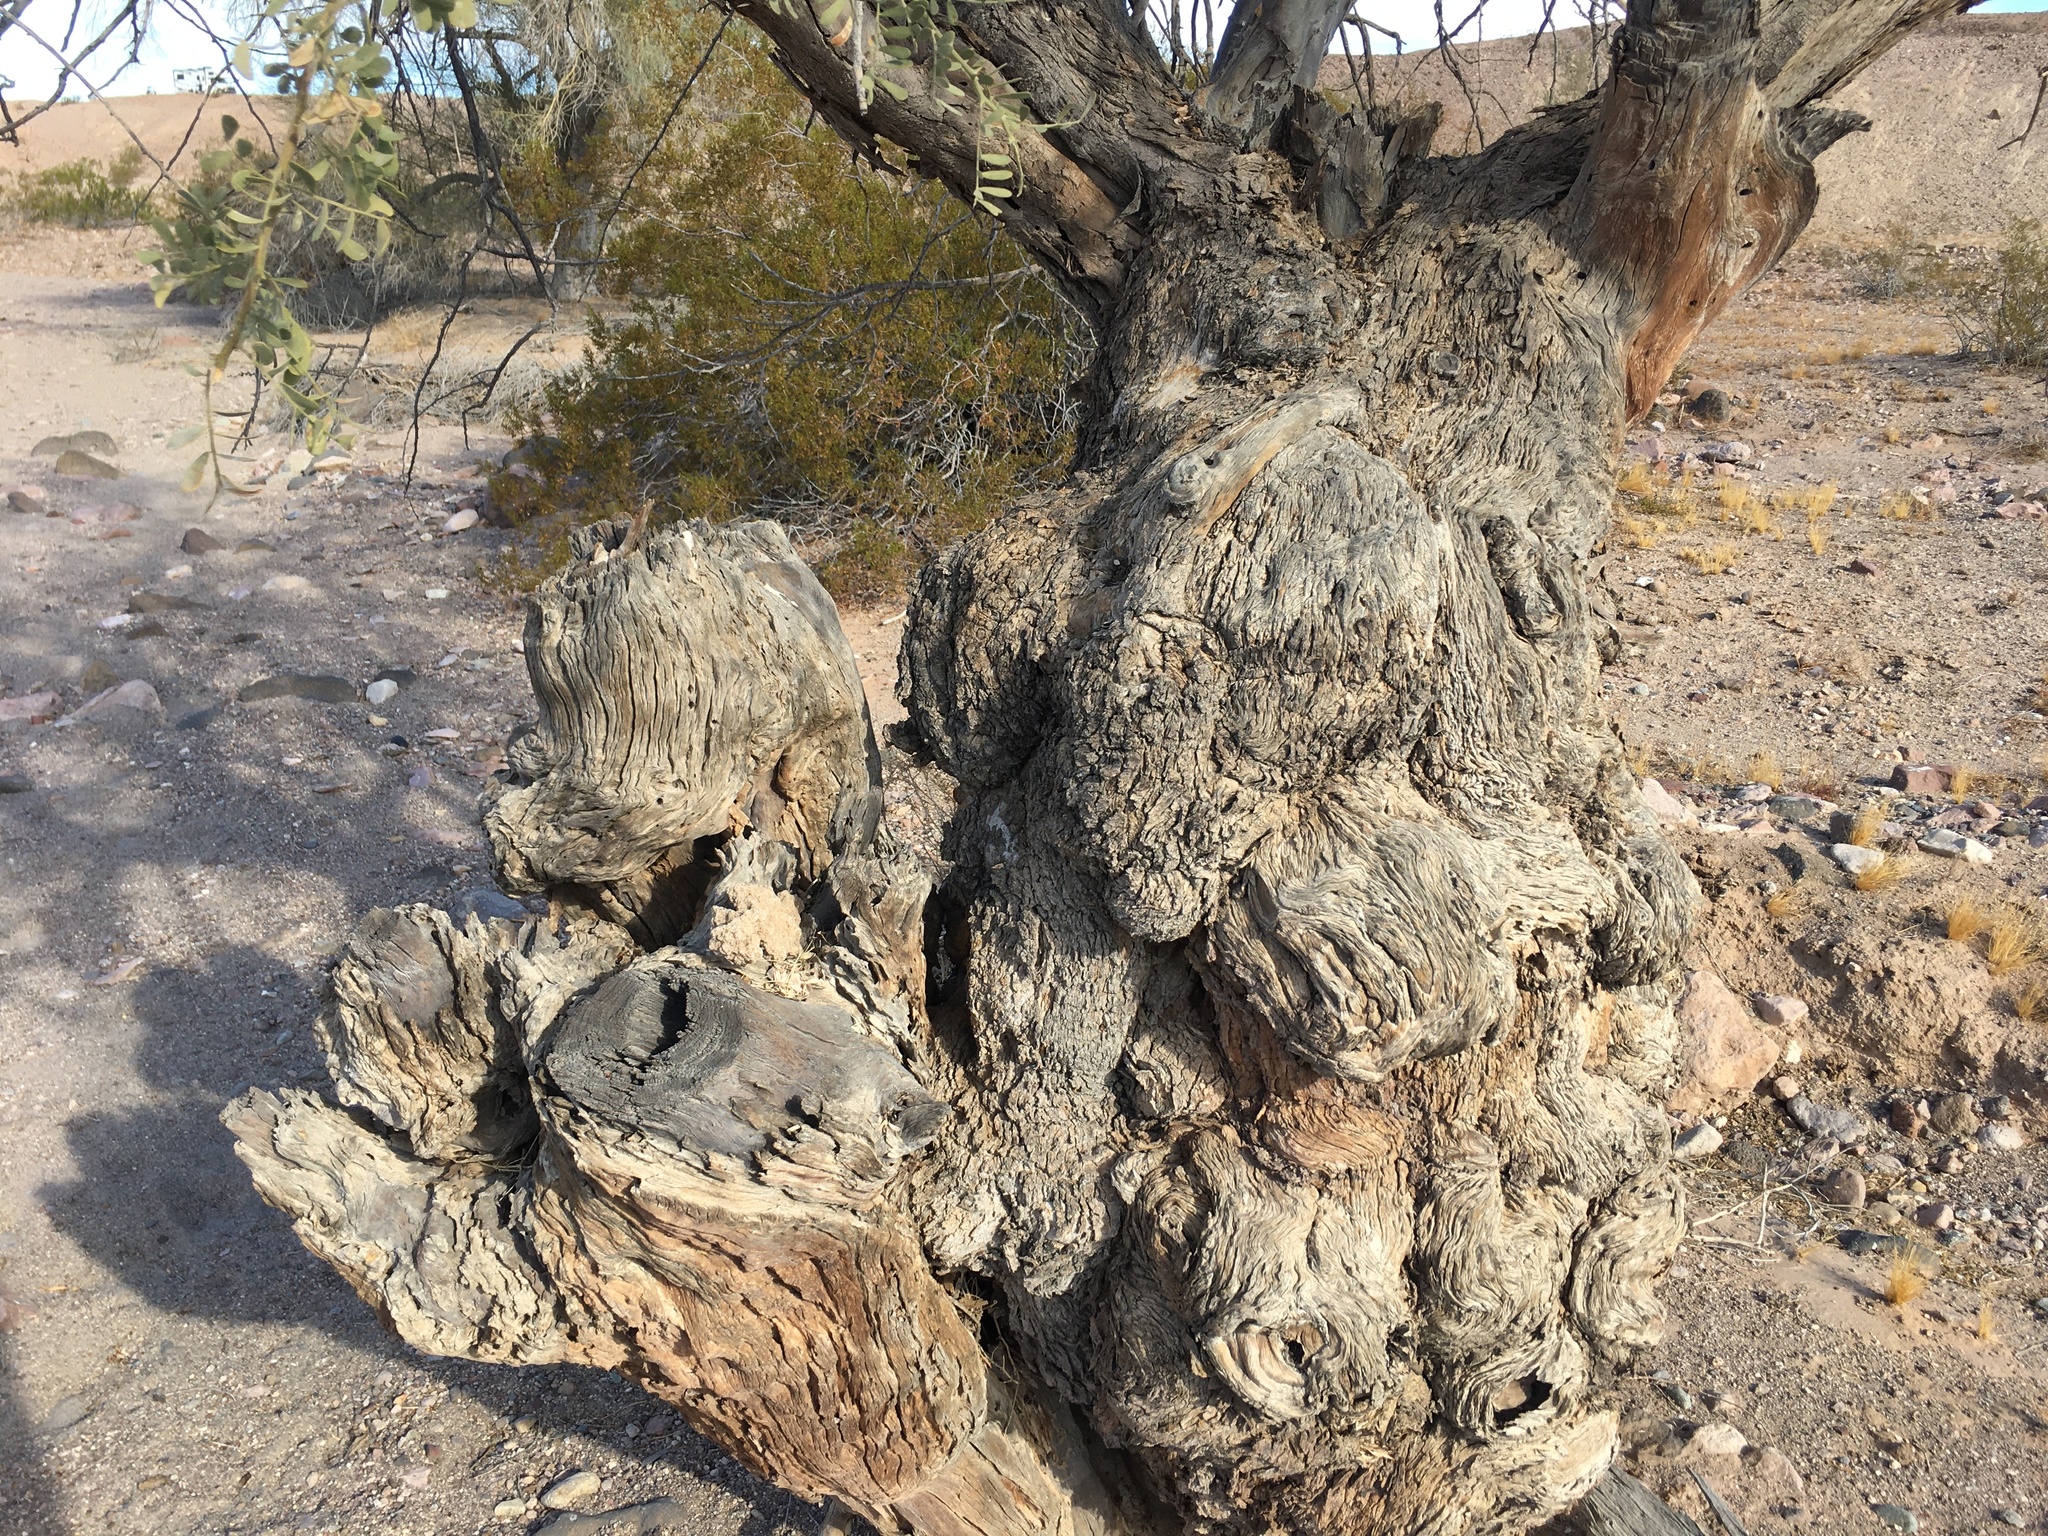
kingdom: Plantae
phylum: Tracheophyta
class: Magnoliopsida
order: Fabales
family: Fabaceae
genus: Olneya
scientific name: Olneya tesota
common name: Desert ironwood
